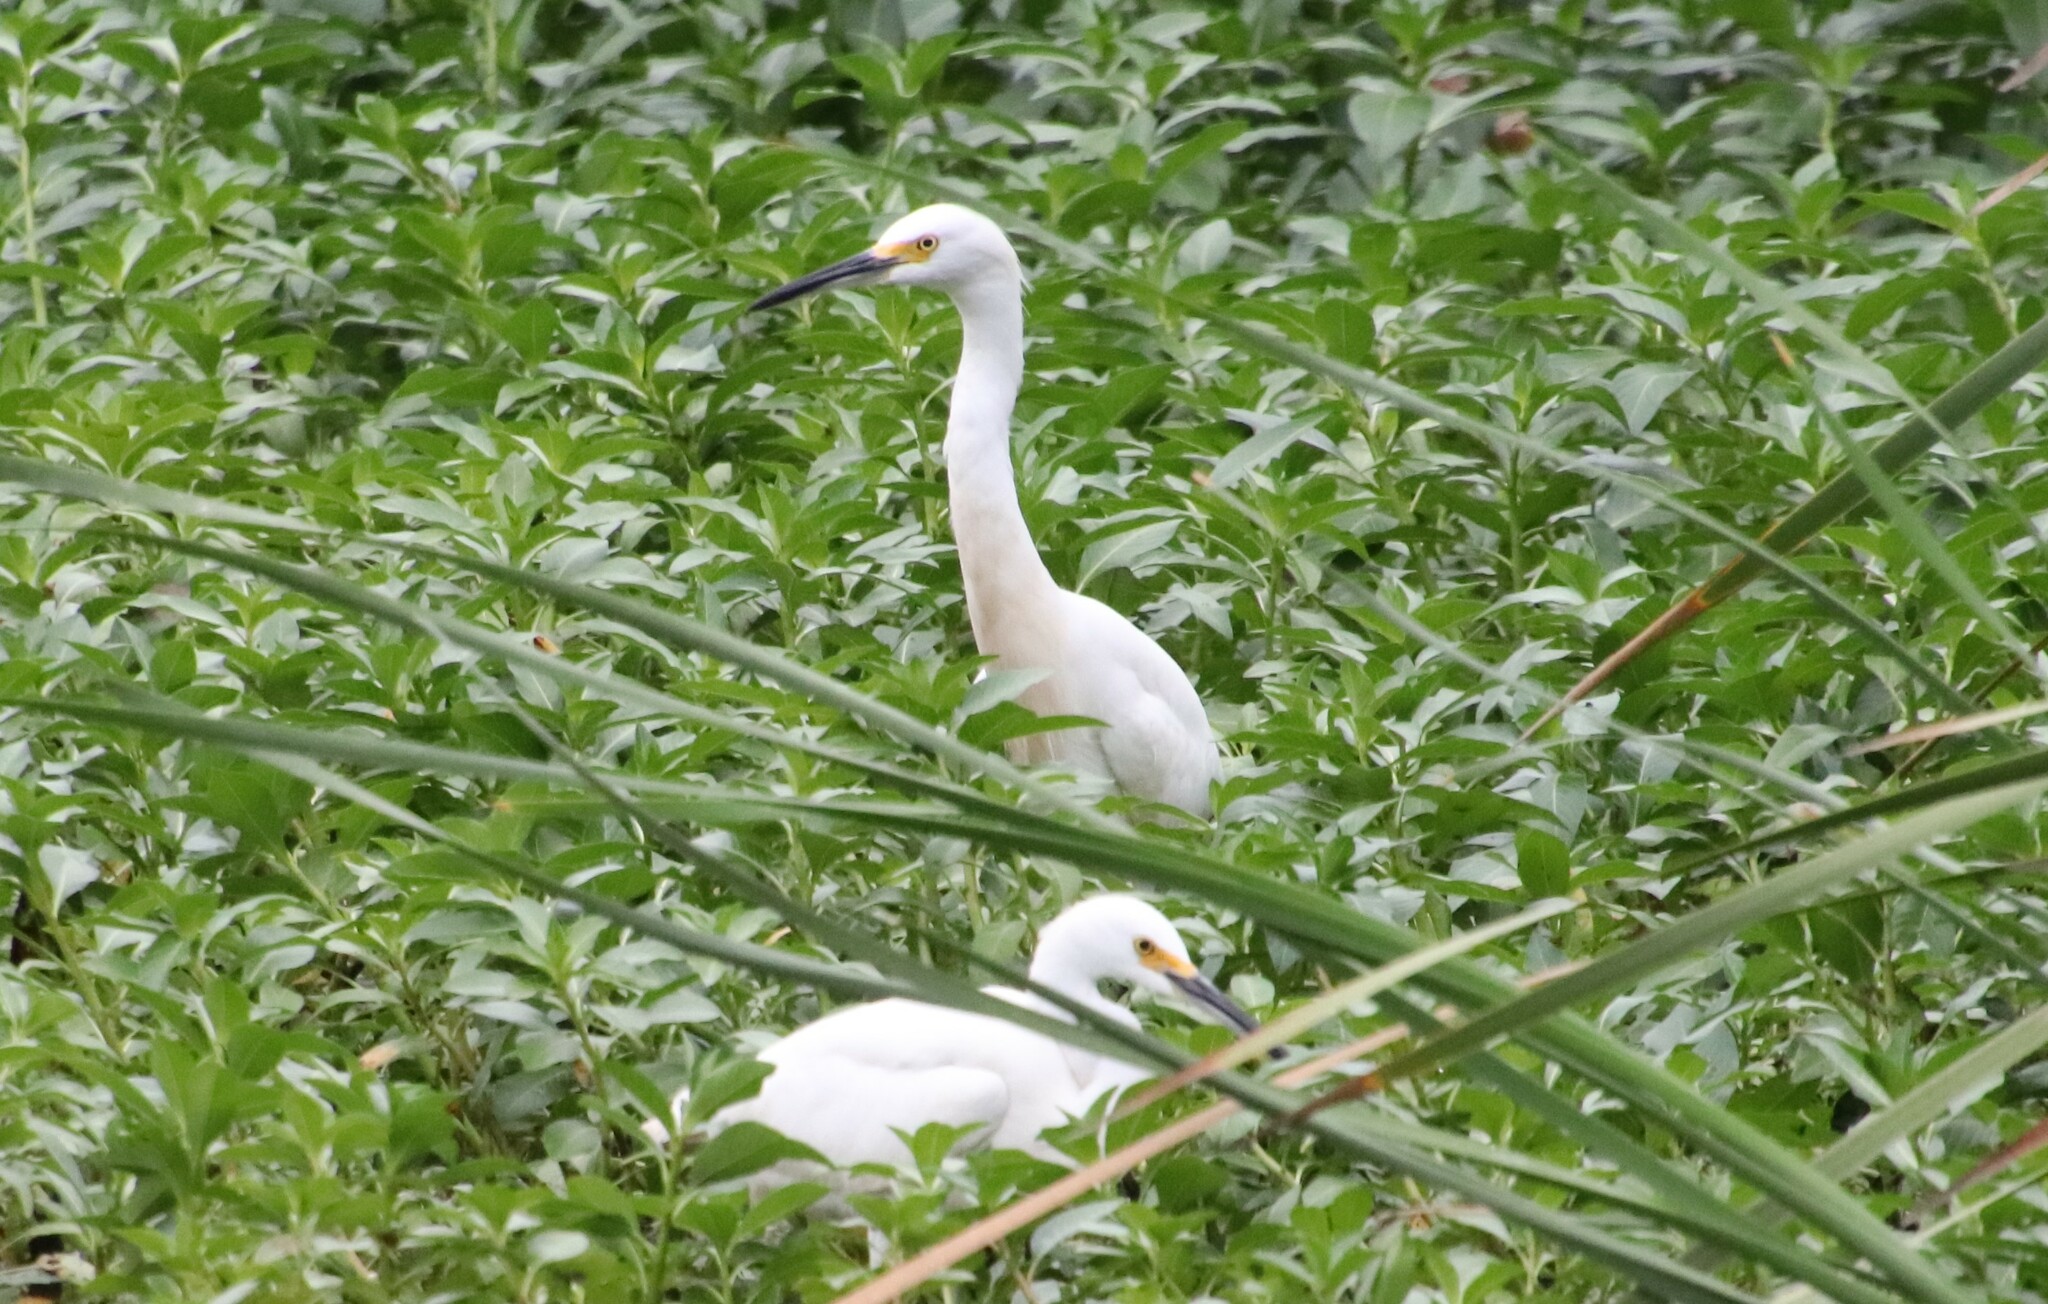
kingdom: Animalia
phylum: Chordata
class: Aves
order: Pelecaniformes
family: Ardeidae
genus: Egretta
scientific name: Egretta thula
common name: Snowy egret
